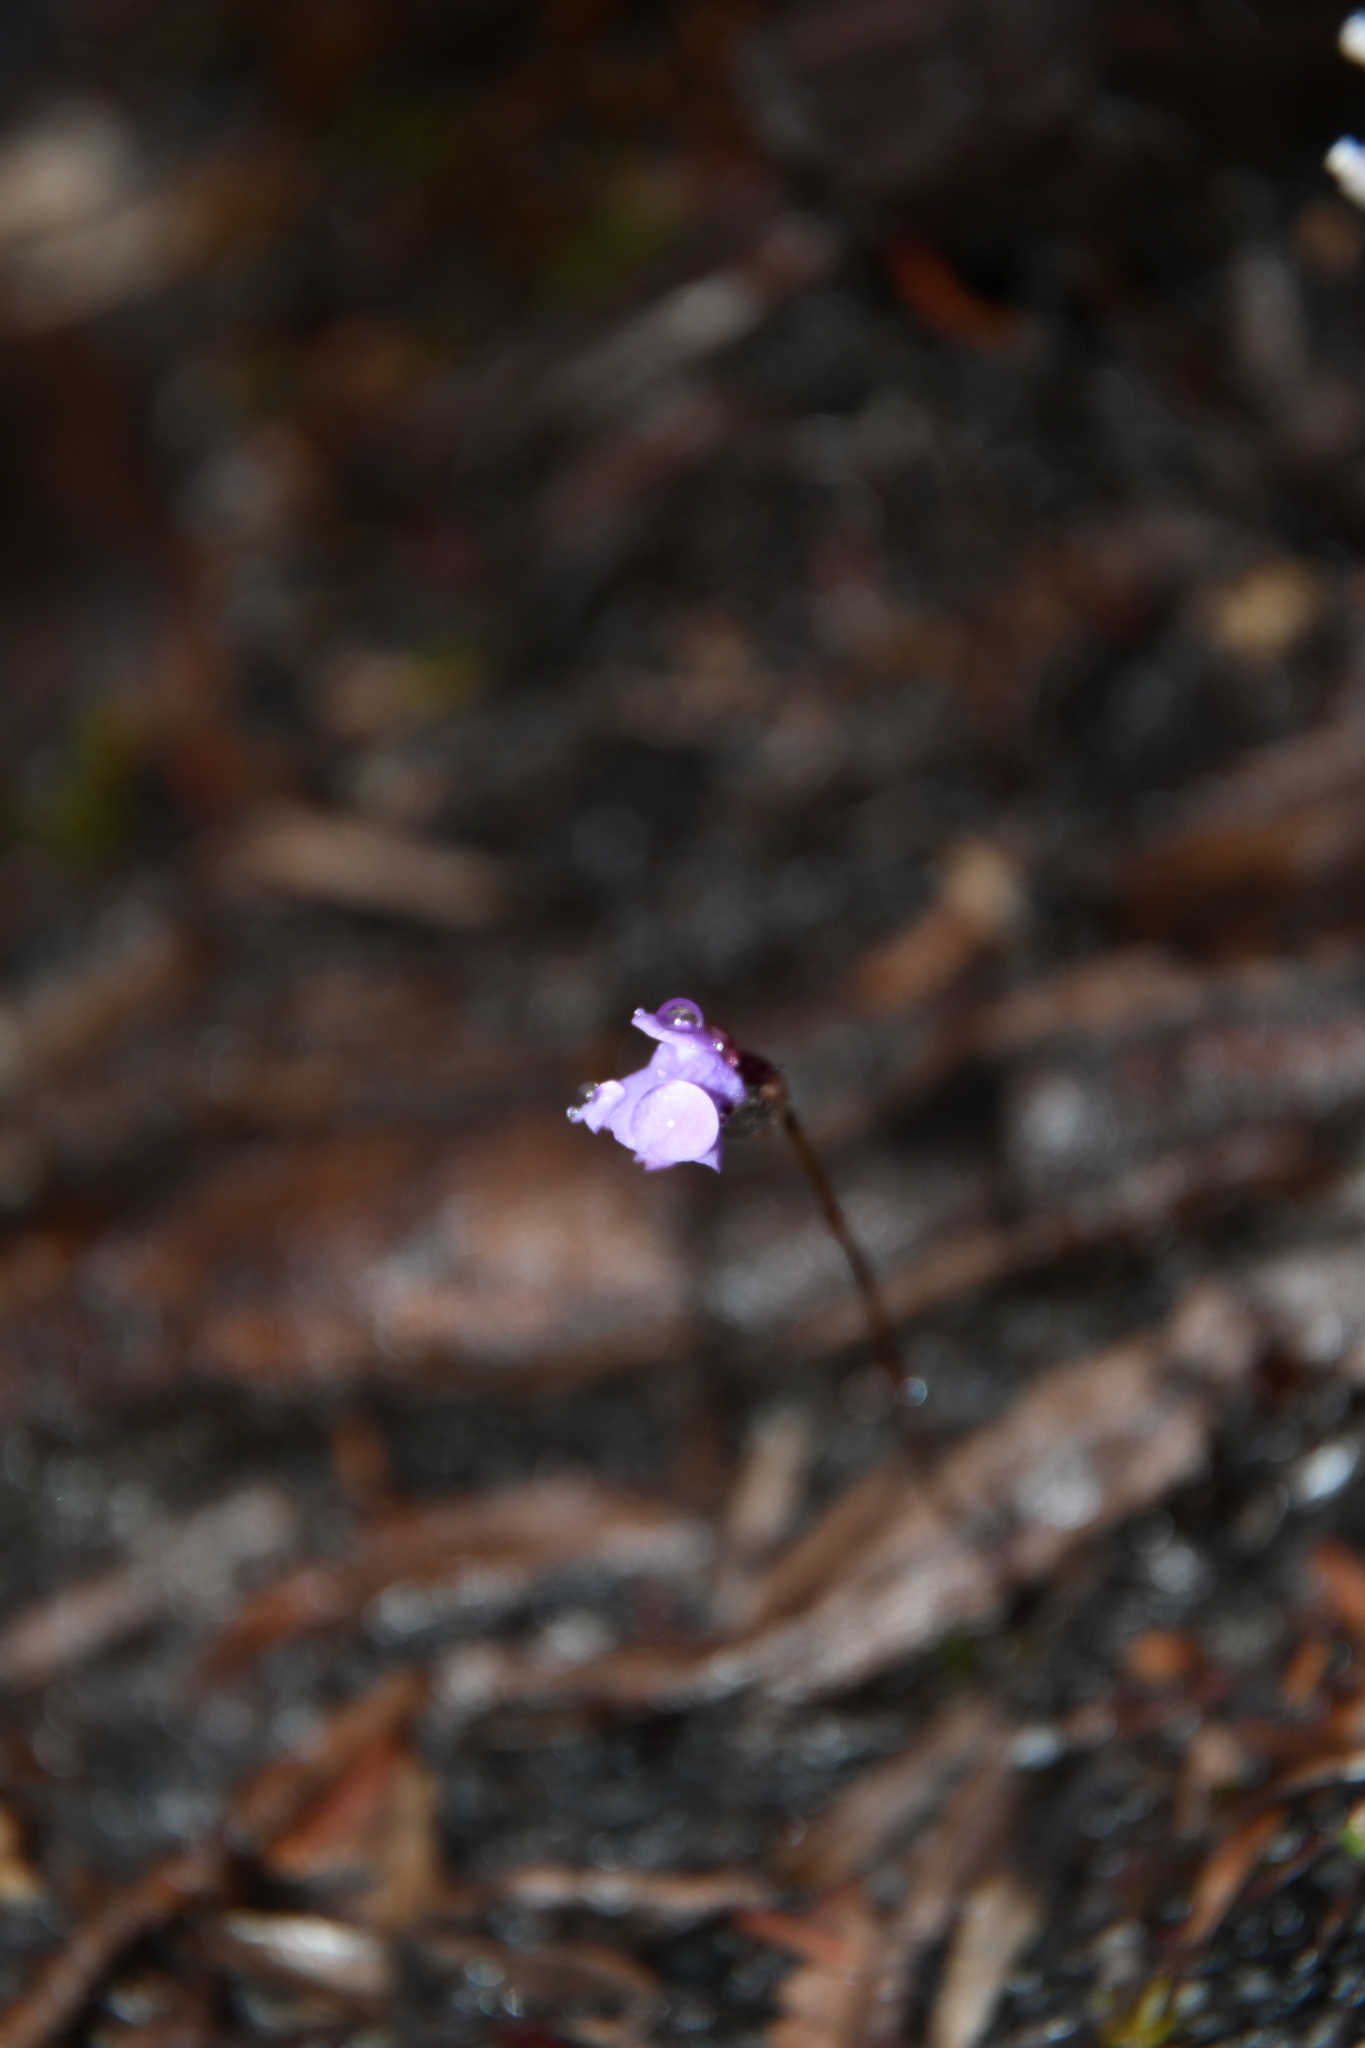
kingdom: Plantae
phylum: Tracheophyta
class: Magnoliopsida
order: Lamiales
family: Lentibulariaceae
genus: Utricularia
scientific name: Utricularia simplex
